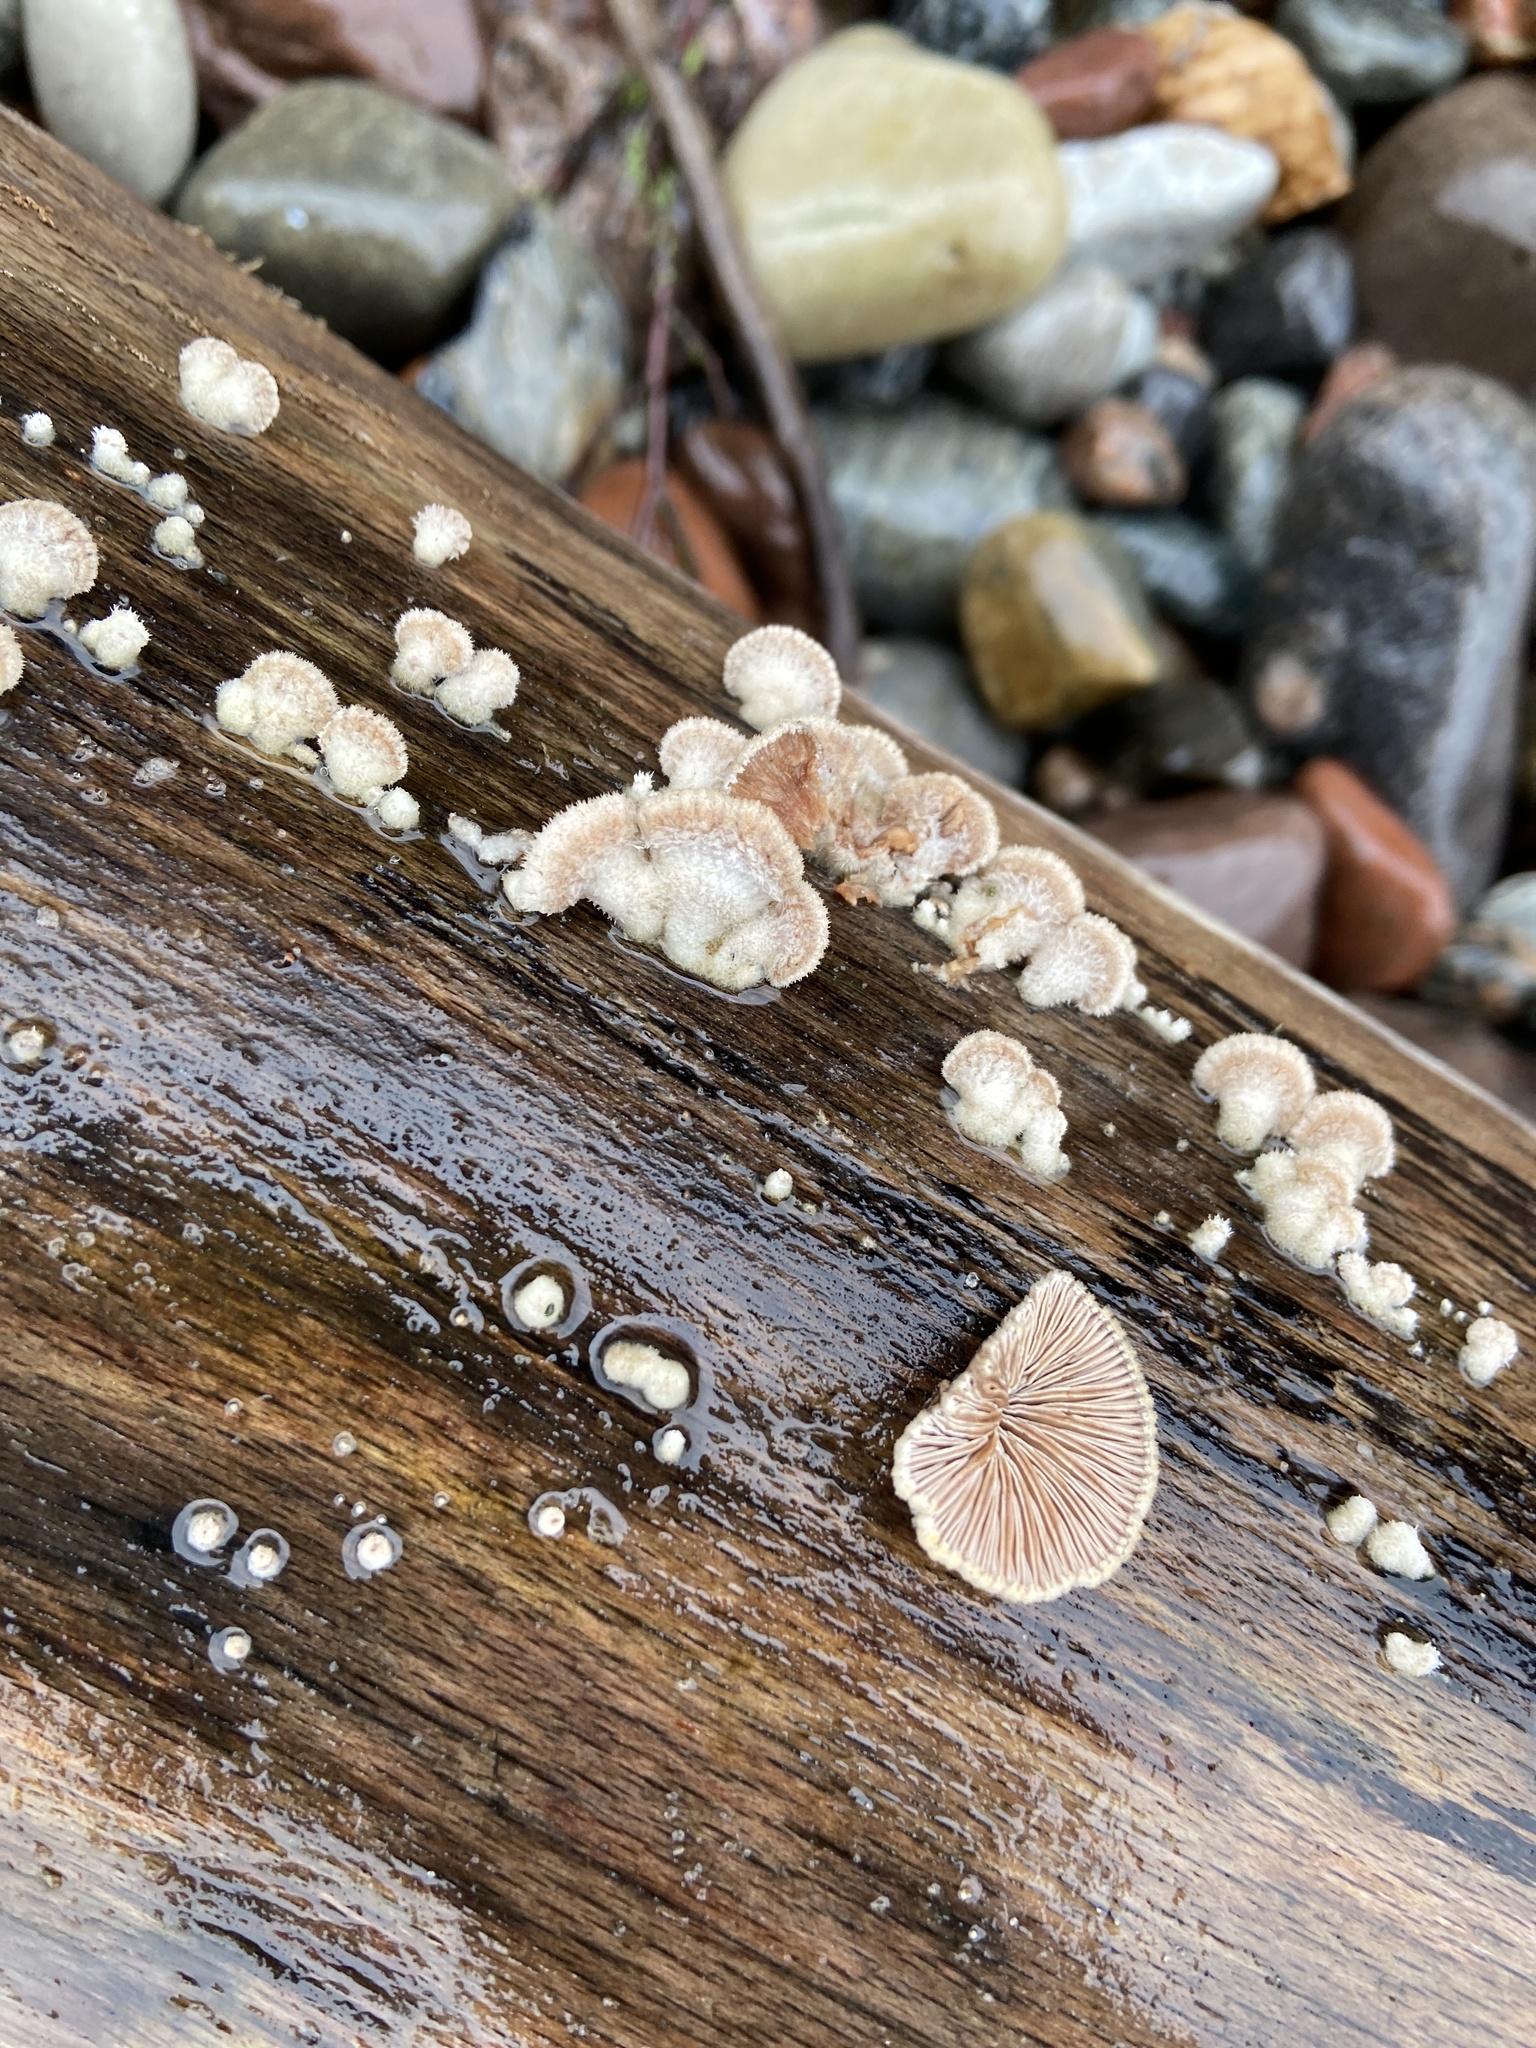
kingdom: Fungi
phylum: Basidiomycota
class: Agaricomycetes
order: Agaricales
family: Schizophyllaceae
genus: Schizophyllum
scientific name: Schizophyllum commune
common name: Common porecrust
